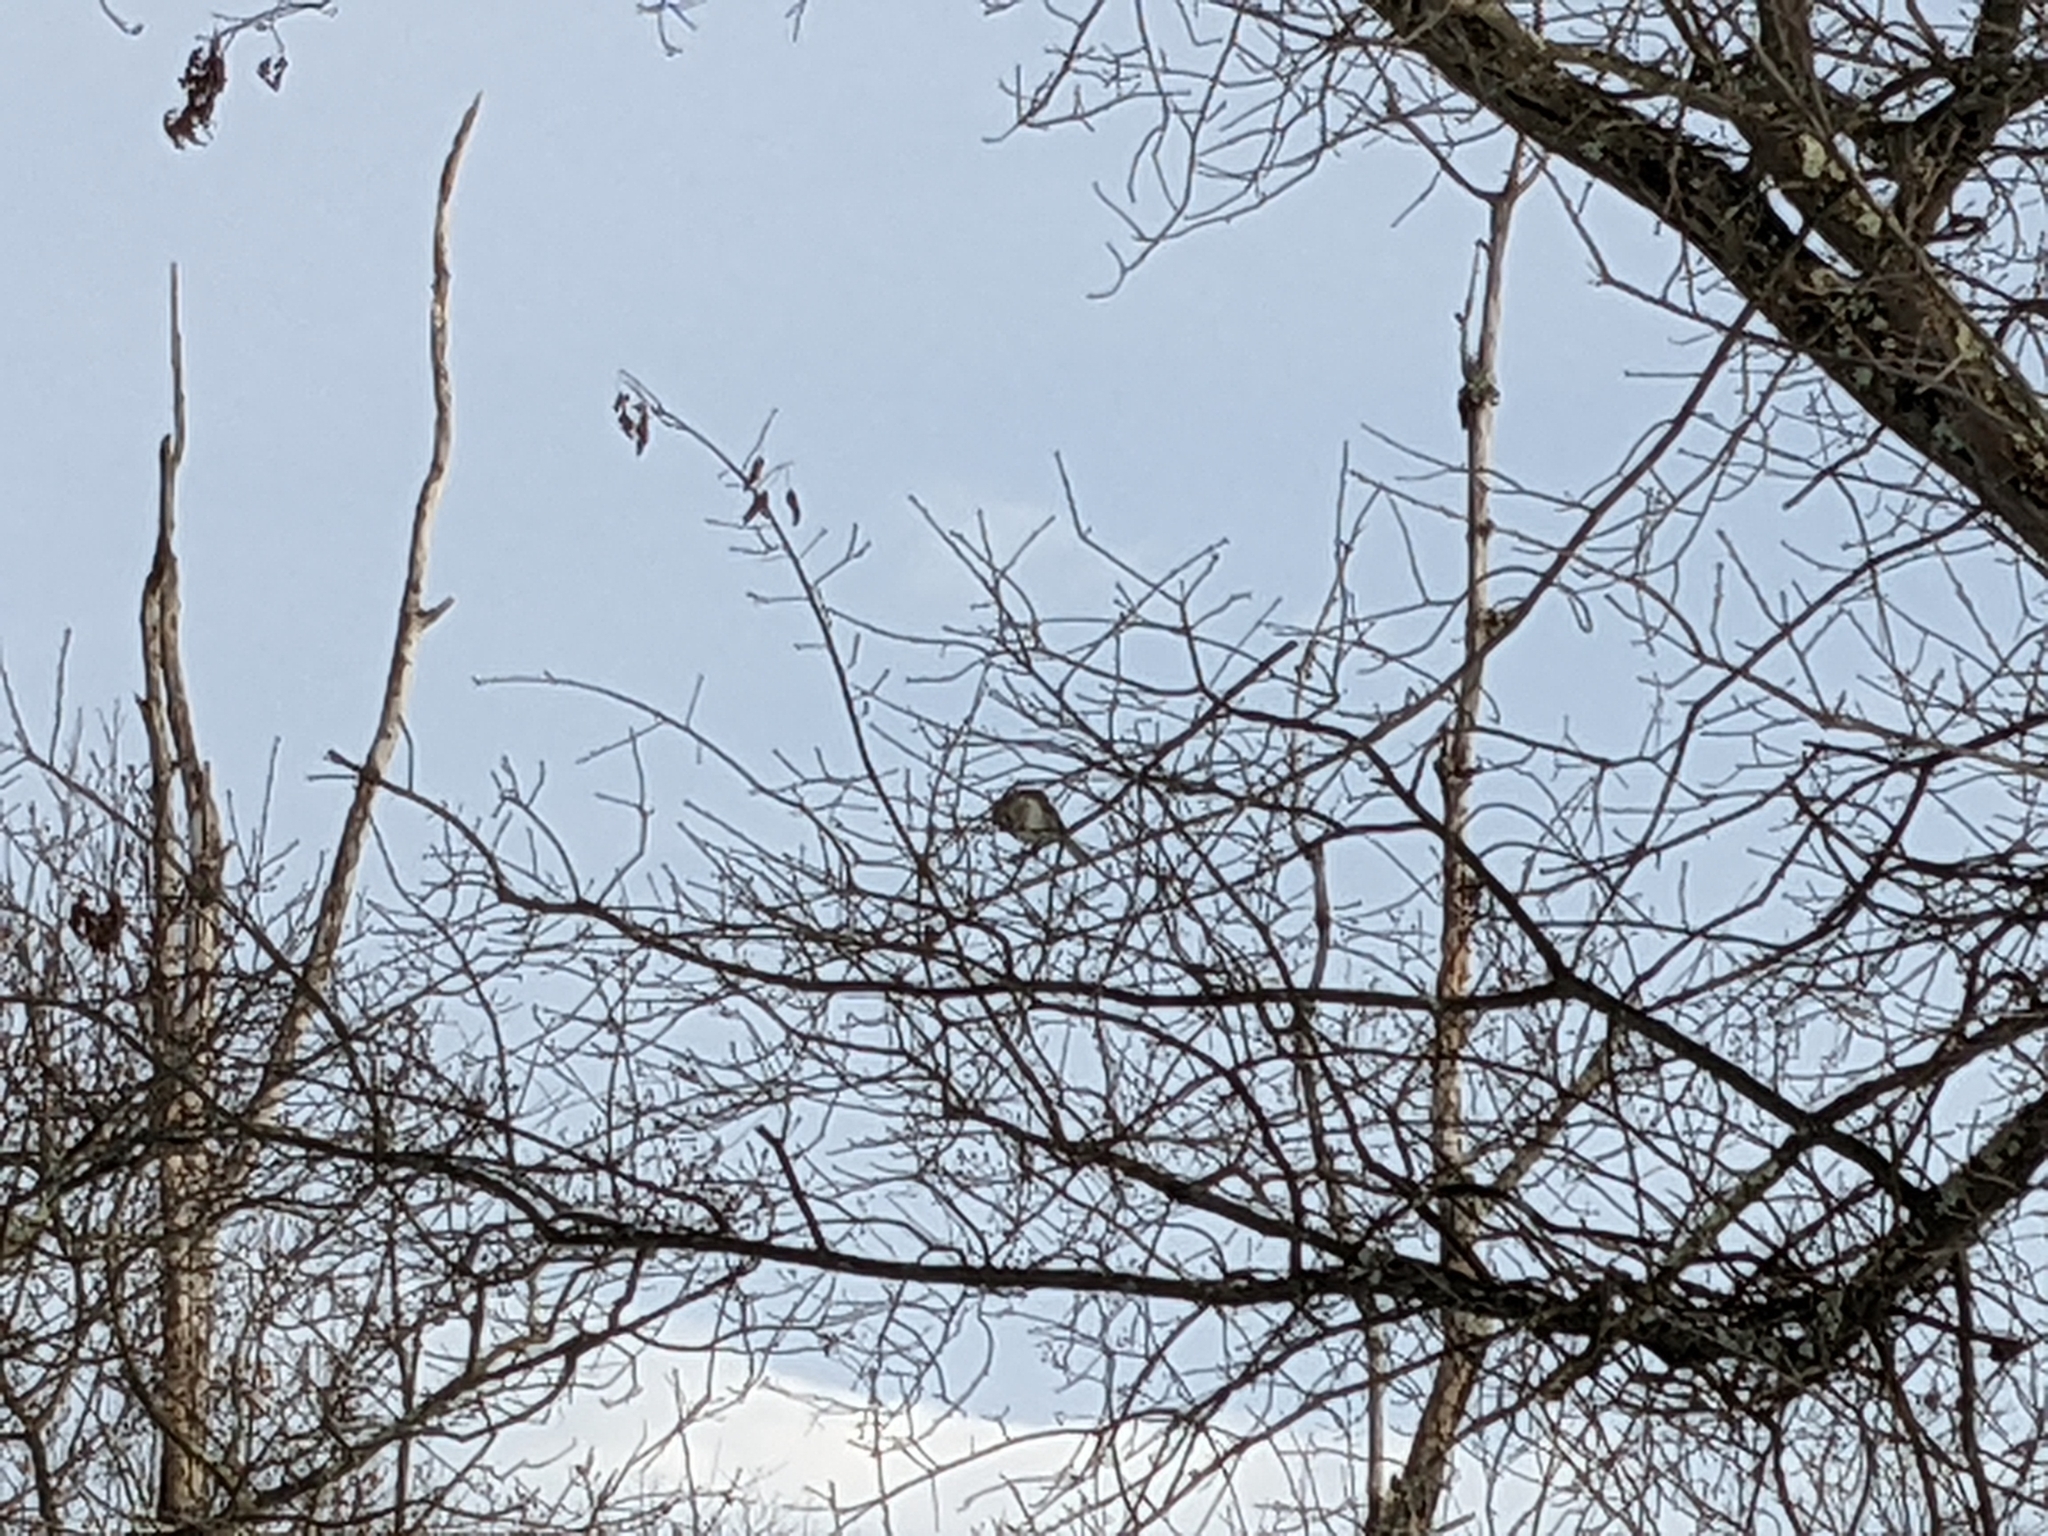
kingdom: Animalia
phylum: Chordata
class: Aves
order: Passeriformes
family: Mimidae
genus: Mimus
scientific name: Mimus polyglottos
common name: Northern mockingbird
